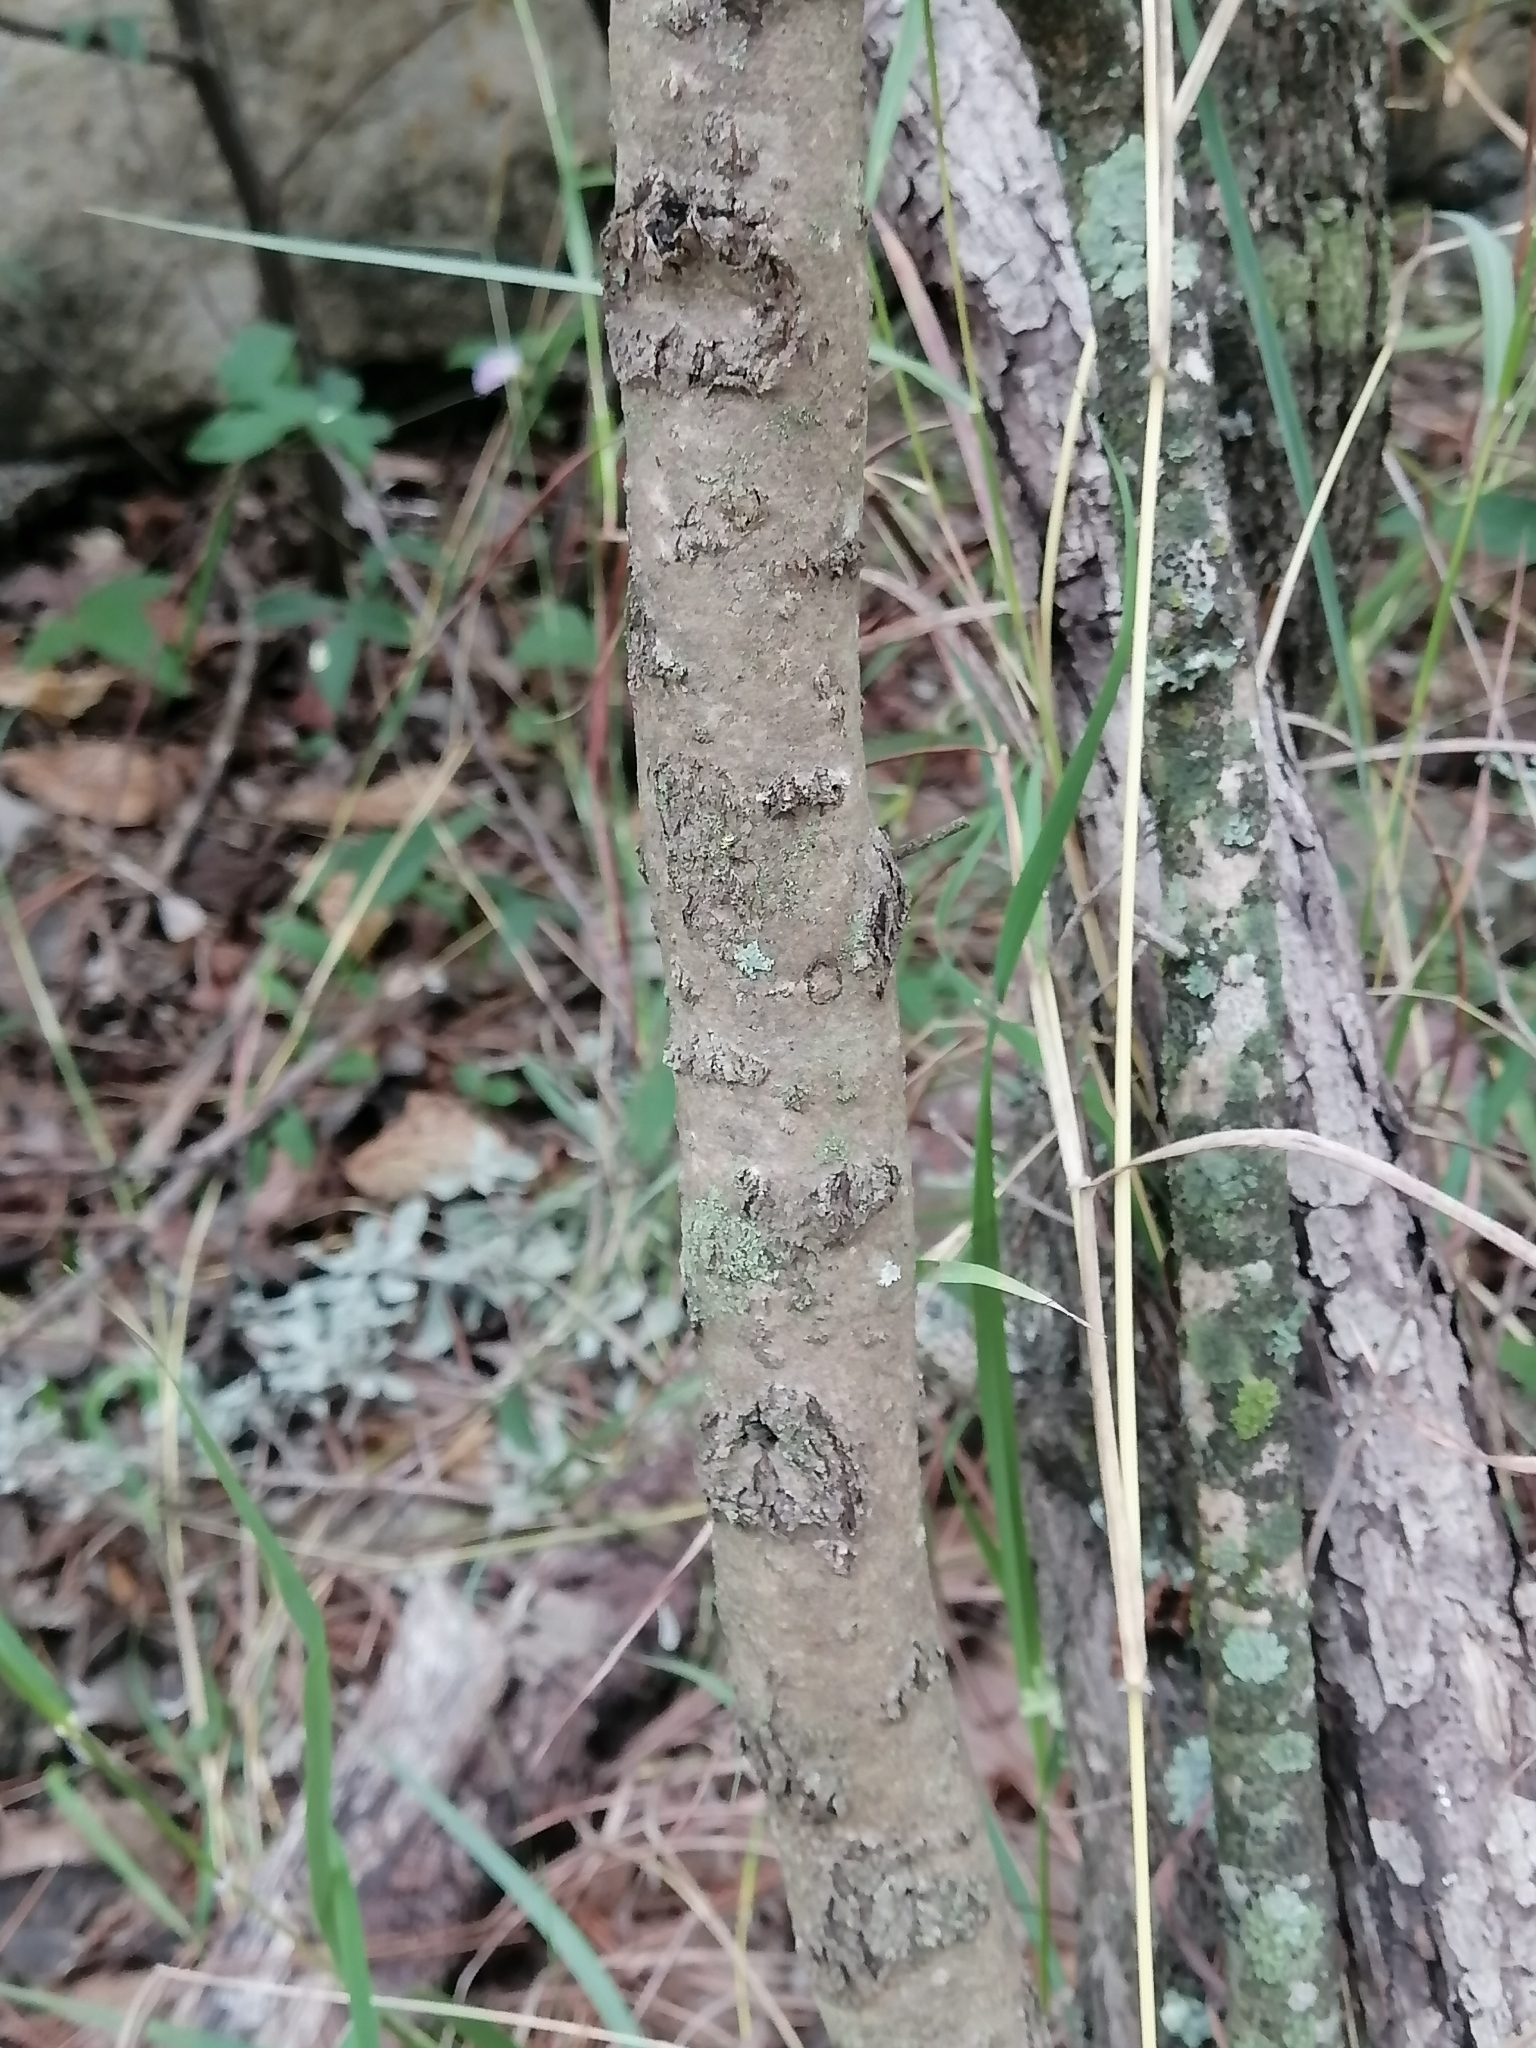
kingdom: Plantae
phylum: Tracheophyta
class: Magnoliopsida
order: Lamiales
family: Scrophulariaceae
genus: Leucophyllum
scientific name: Leucophyllum frutescens
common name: Texas silverleaf
